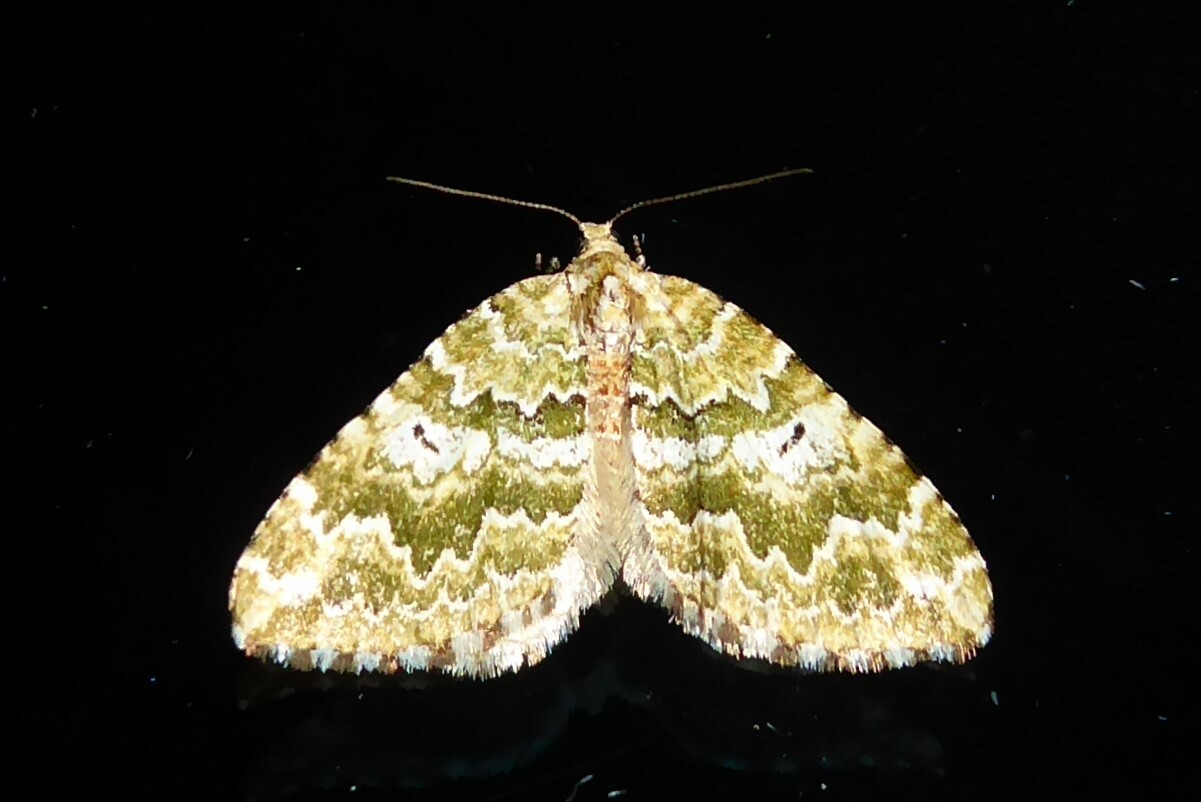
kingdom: Animalia
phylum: Arthropoda
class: Insecta
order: Lepidoptera
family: Geometridae
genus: Asaphodes
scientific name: Asaphodes beata
